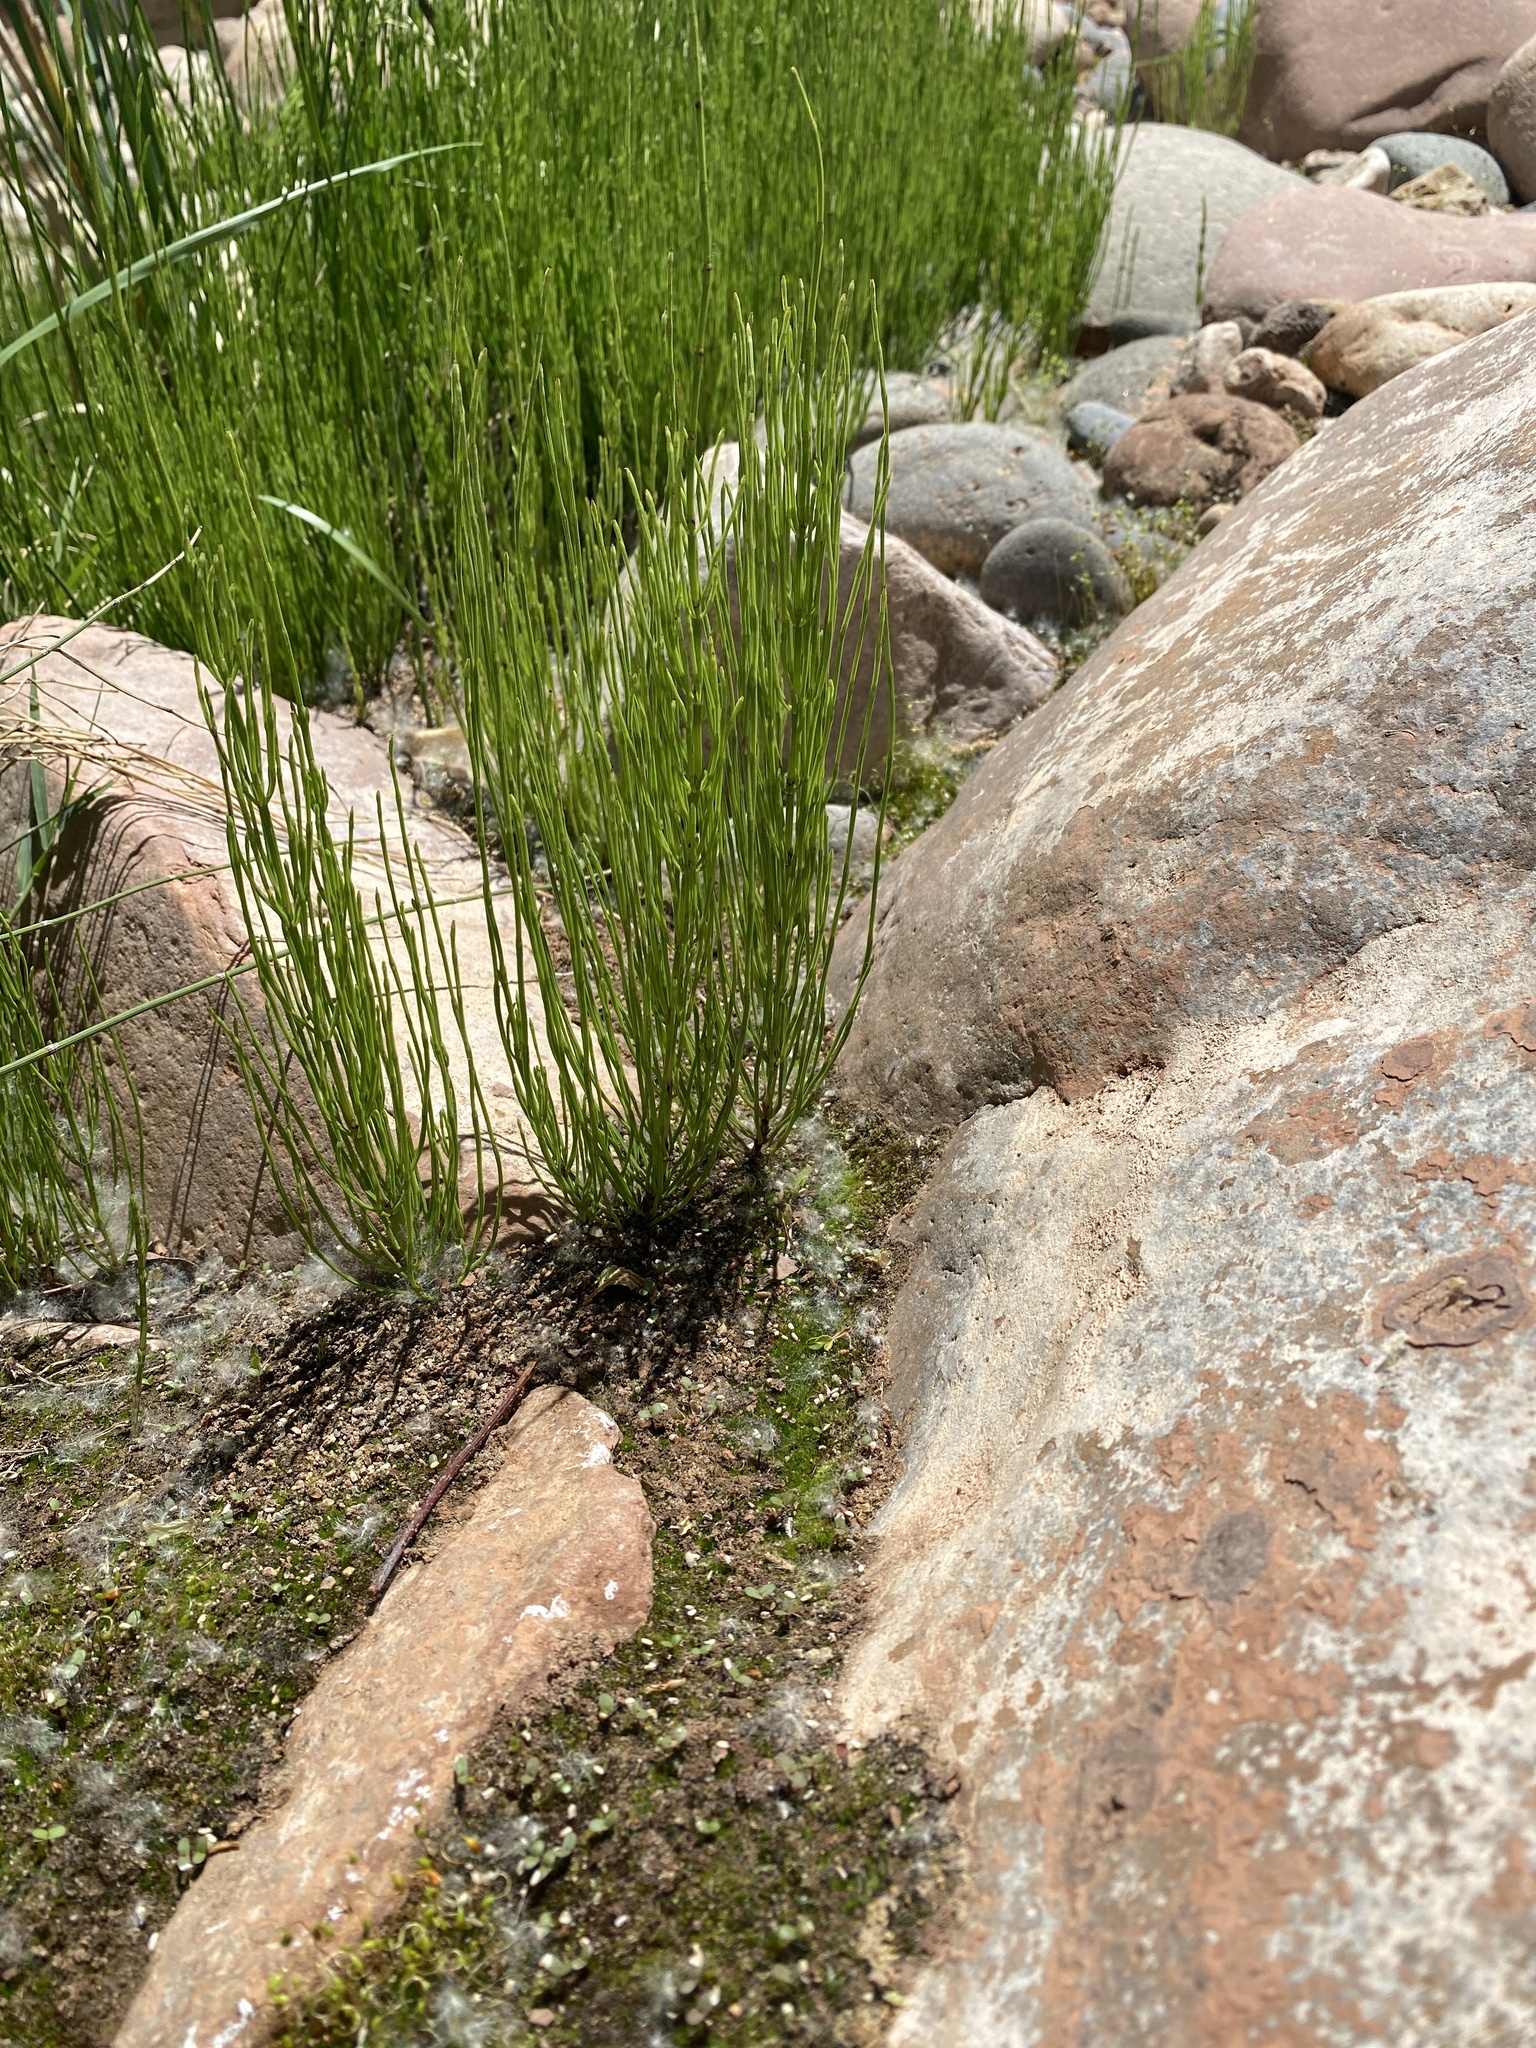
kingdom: Plantae
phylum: Tracheophyta
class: Polypodiopsida
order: Equisetales
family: Equisetaceae
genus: Equisetum
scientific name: Equisetum arvense
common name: Field horsetail
